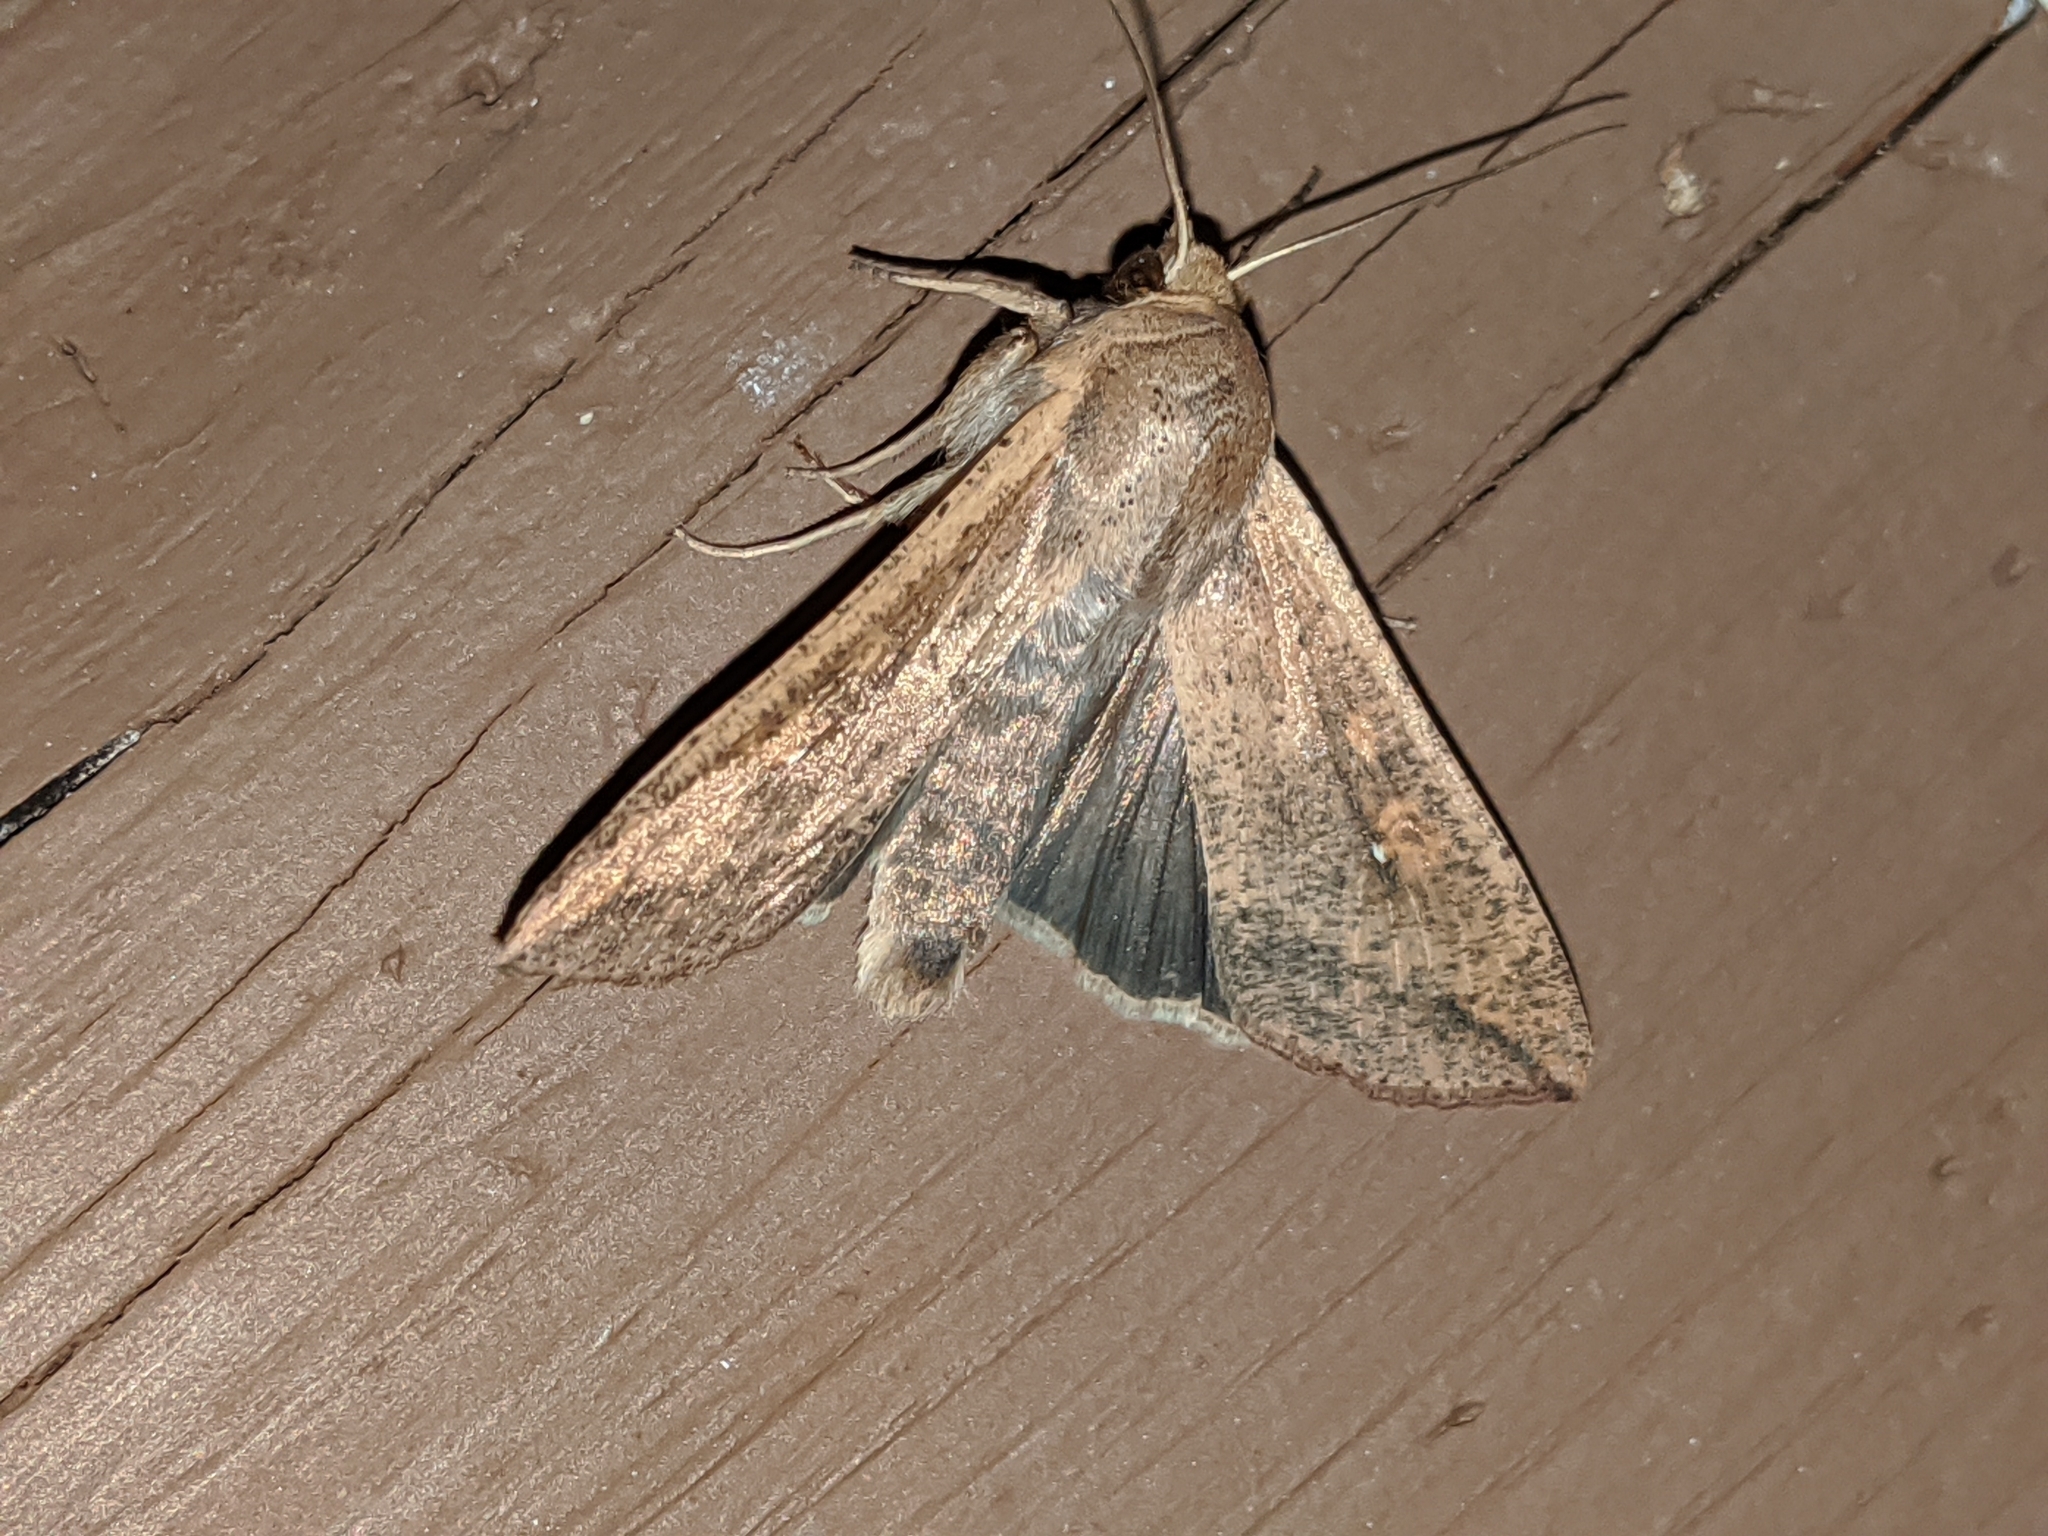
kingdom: Animalia
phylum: Arthropoda
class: Insecta
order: Lepidoptera
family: Noctuidae
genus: Mythimna
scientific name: Mythimna unipuncta
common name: White-speck
